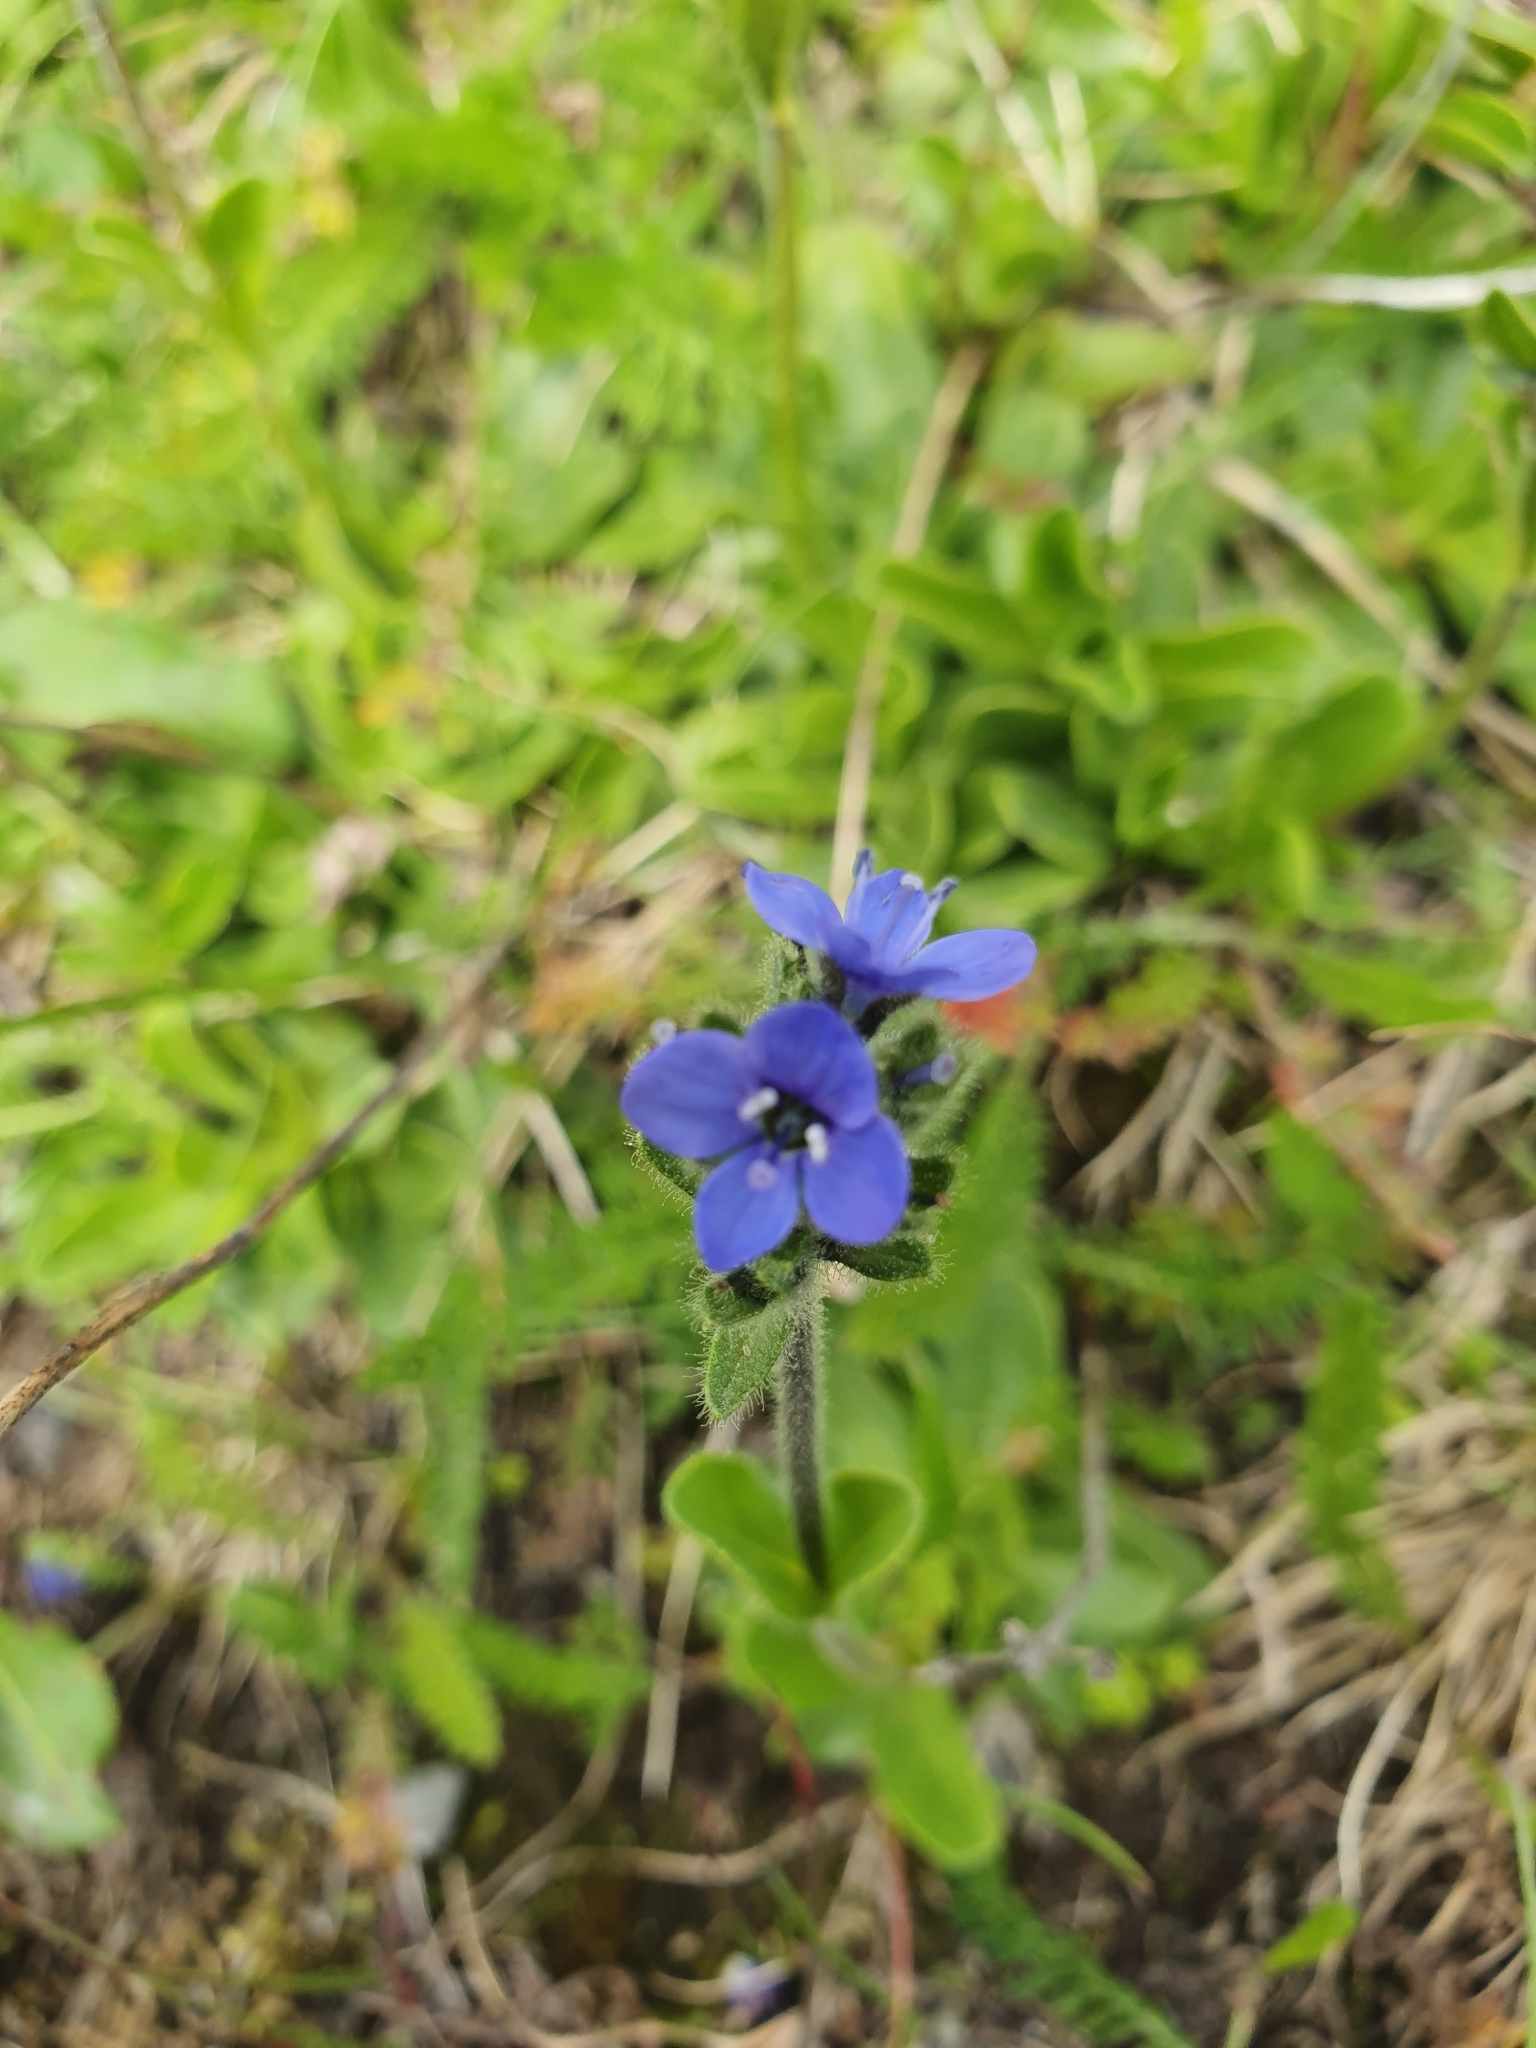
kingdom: Plantae
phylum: Tracheophyta
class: Magnoliopsida
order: Lamiales
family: Plantaginaceae
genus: Veronica
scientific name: Veronica bellidioides
